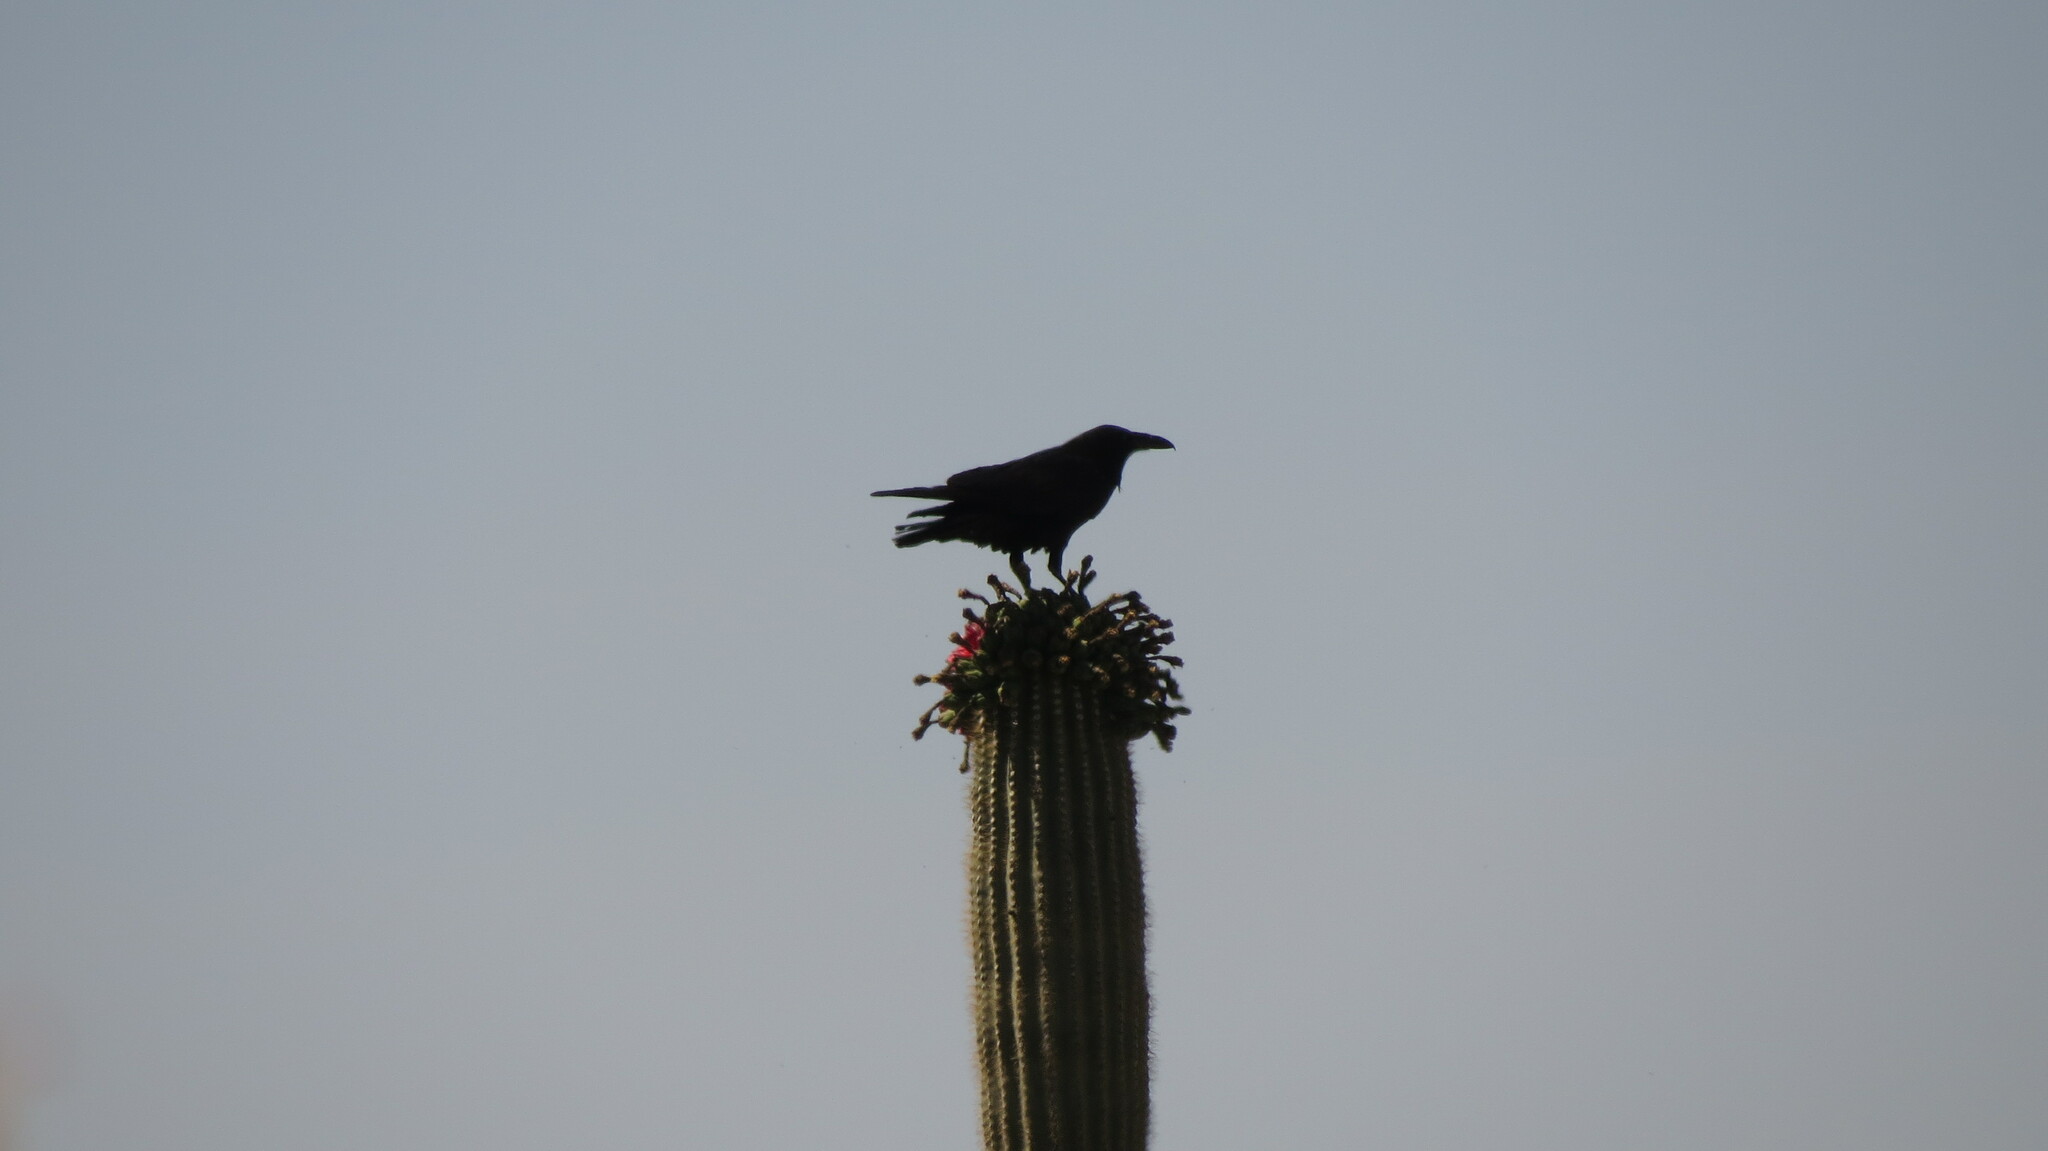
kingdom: Animalia
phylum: Chordata
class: Aves
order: Passeriformes
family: Corvidae
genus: Corvus
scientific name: Corvus corax
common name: Common raven
